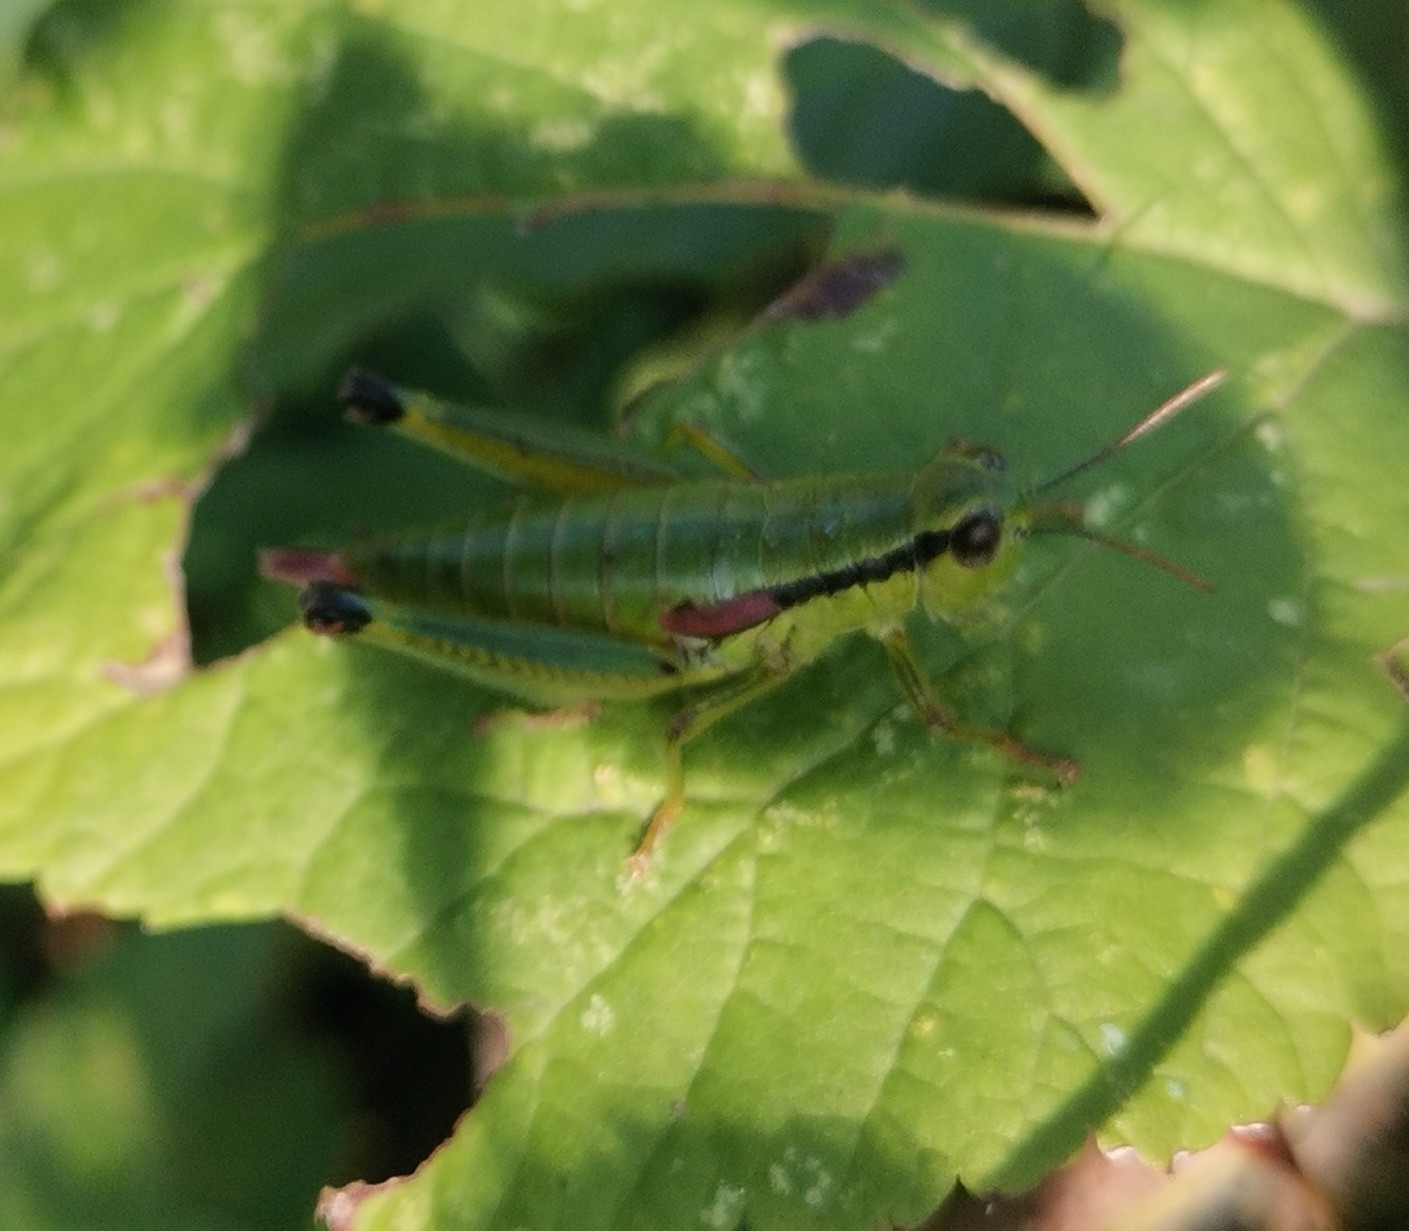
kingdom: Animalia
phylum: Arthropoda
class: Insecta
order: Orthoptera
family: Acrididae
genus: Odontopodisma
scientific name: Odontopodisma decipiens
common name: Cheating mountain grasshopper
